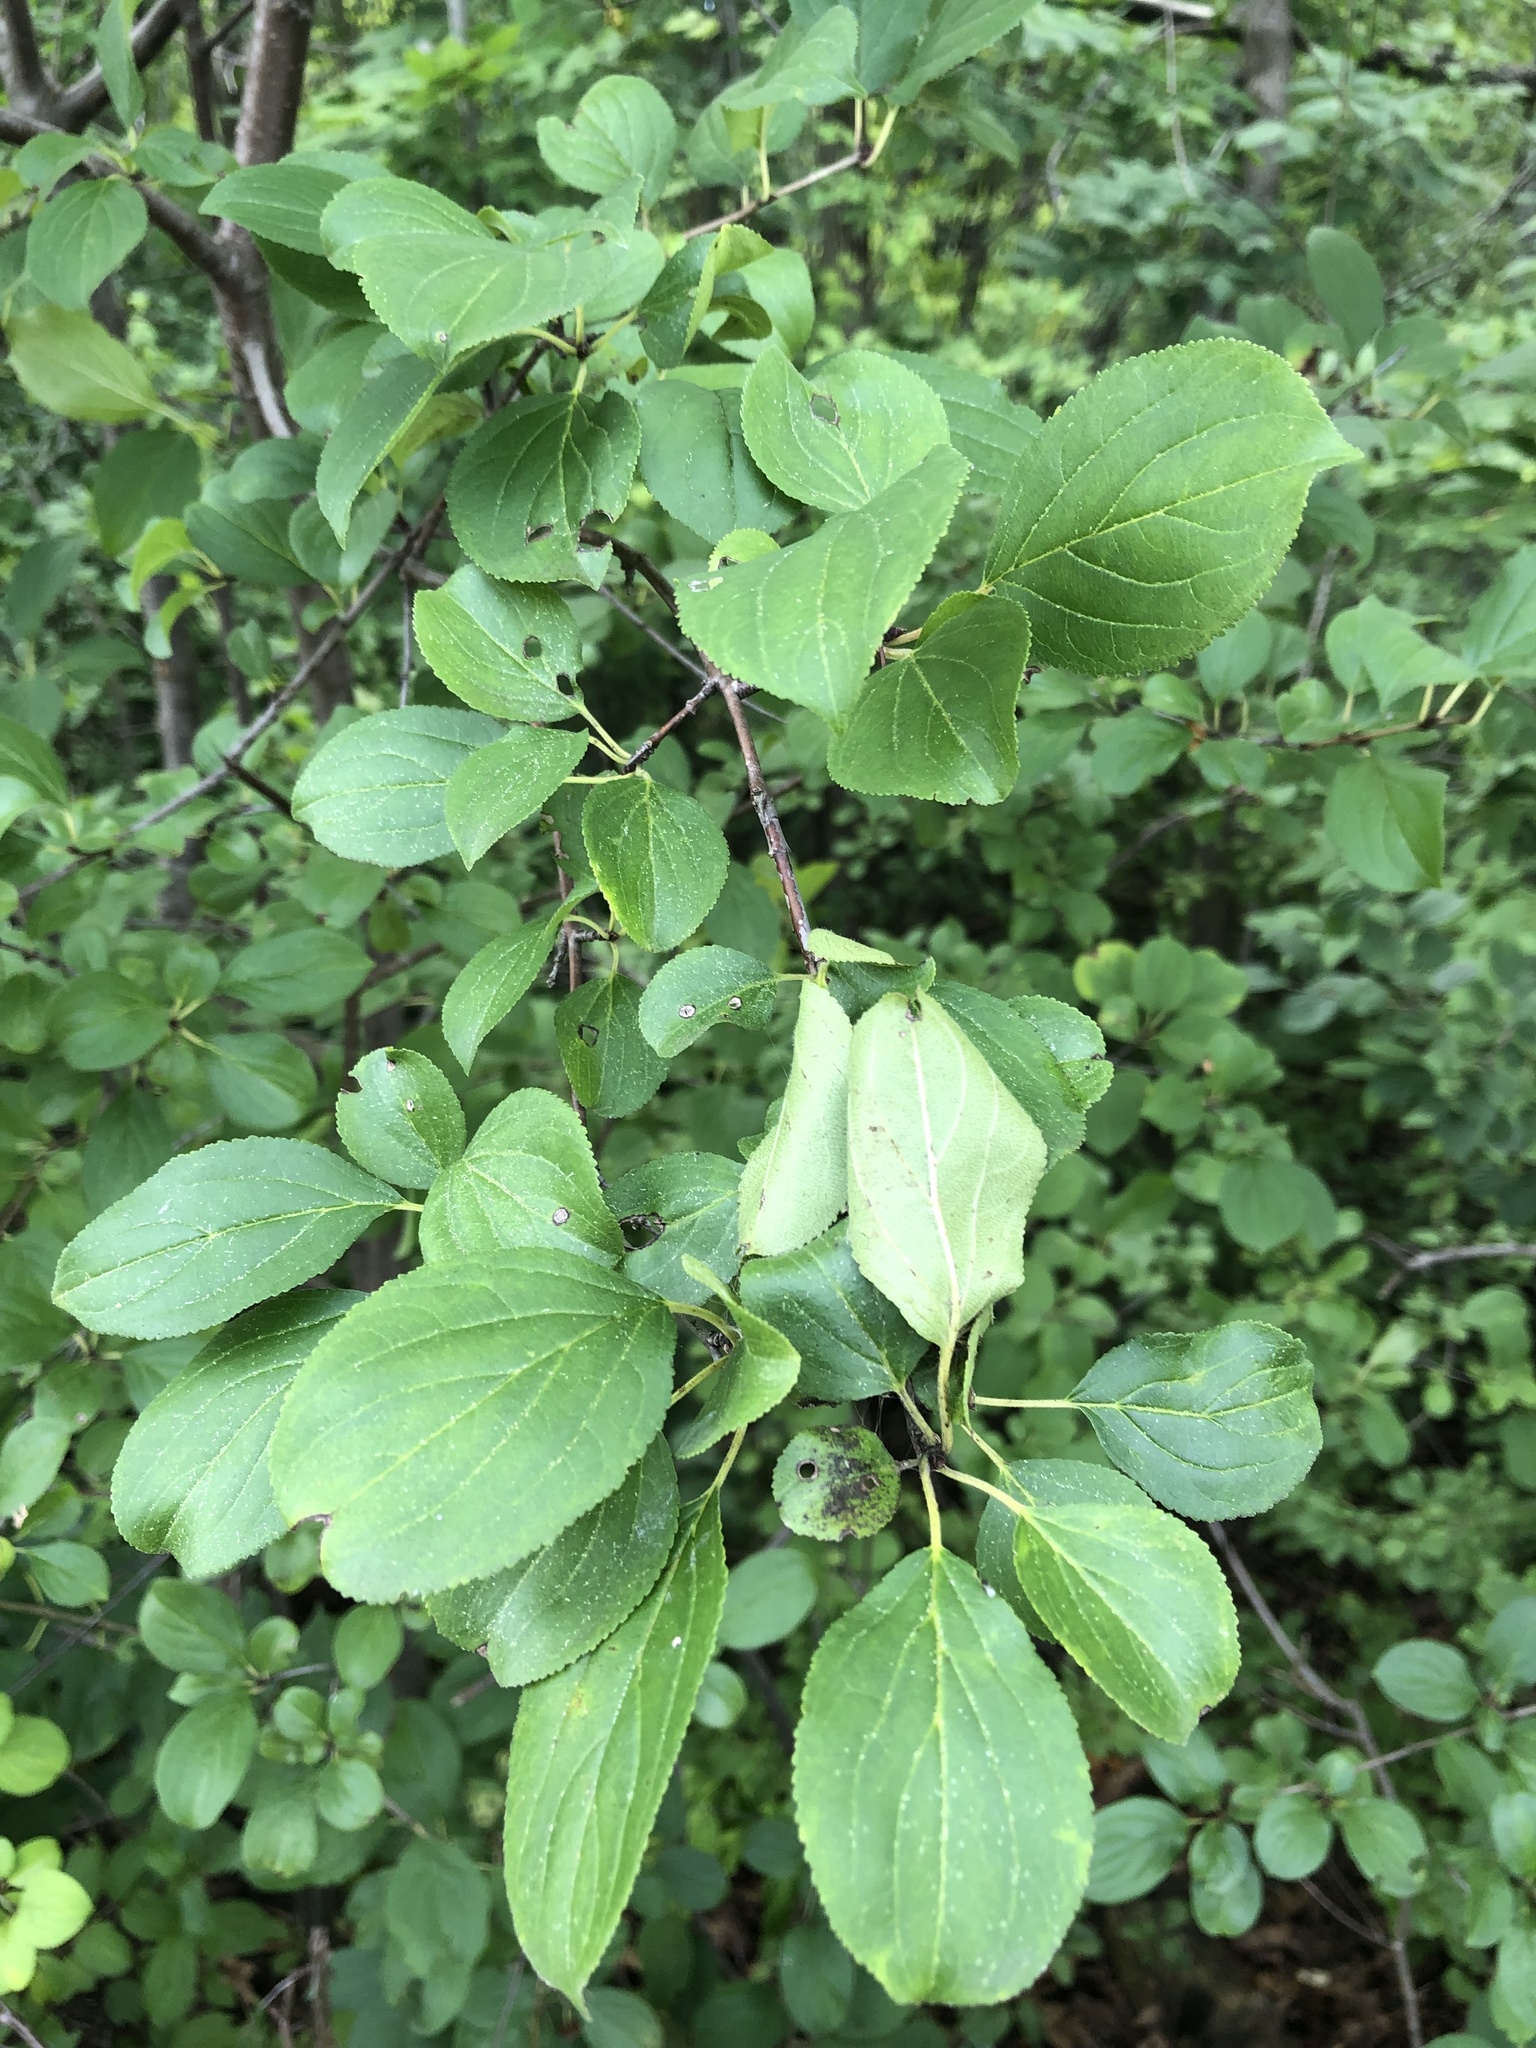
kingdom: Plantae
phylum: Tracheophyta
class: Magnoliopsida
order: Rosales
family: Rhamnaceae
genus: Rhamnus
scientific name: Rhamnus cathartica
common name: Common buckthorn
